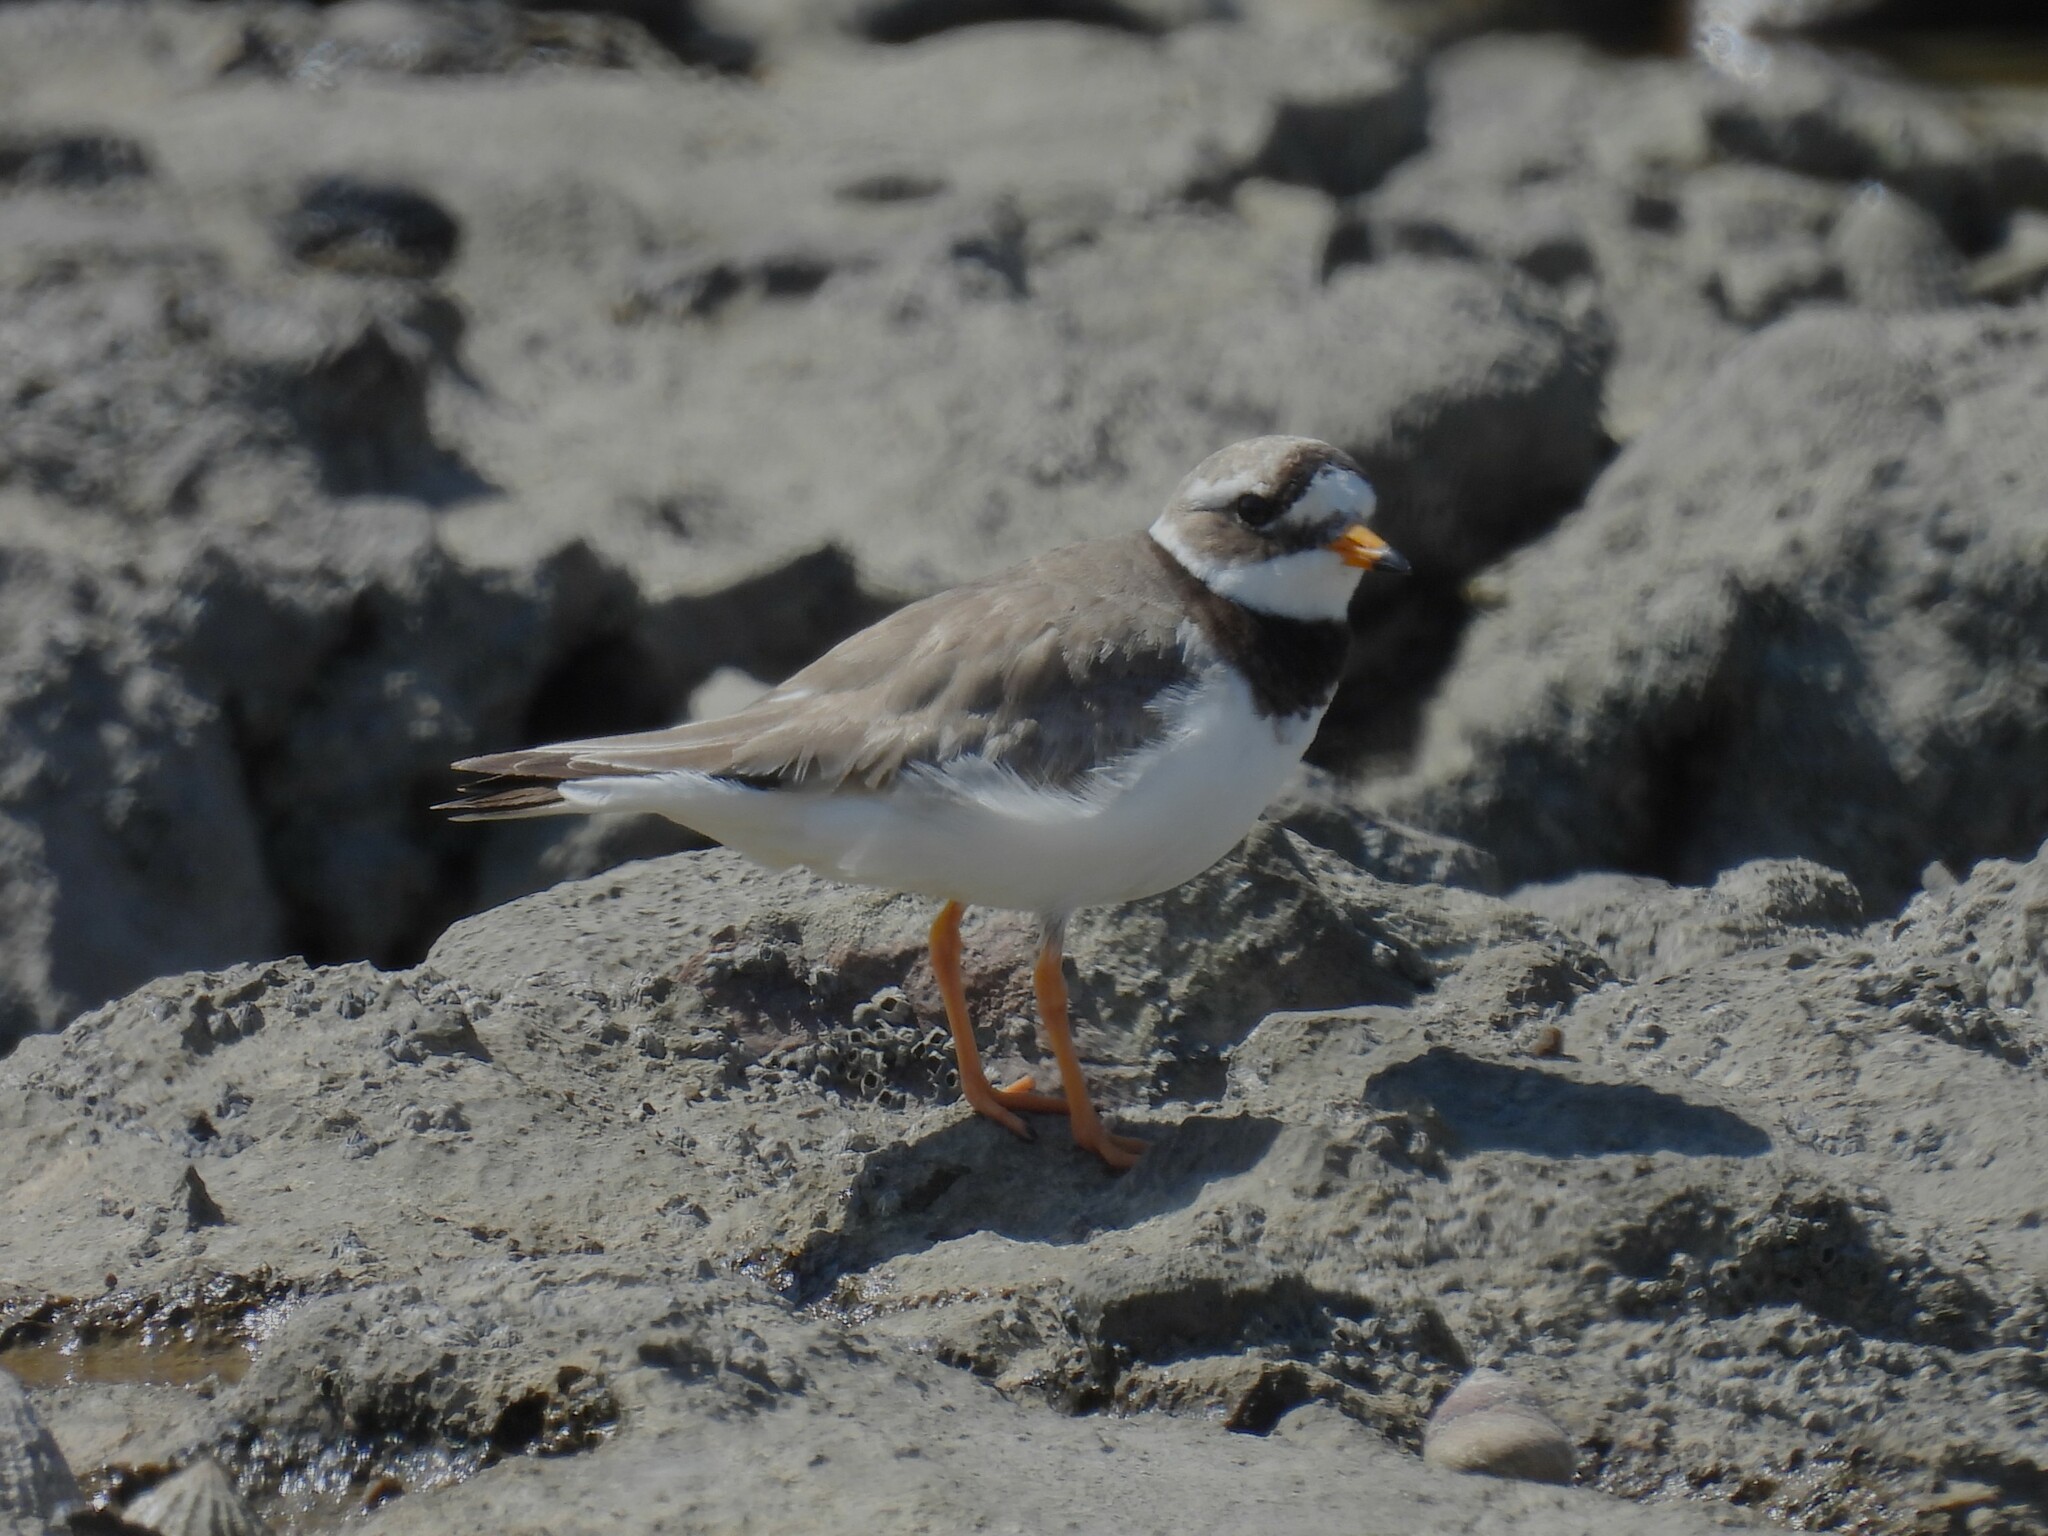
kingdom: Animalia
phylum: Chordata
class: Aves
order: Charadriiformes
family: Charadriidae
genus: Charadrius
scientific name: Charadrius hiaticula
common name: Common ringed plover
